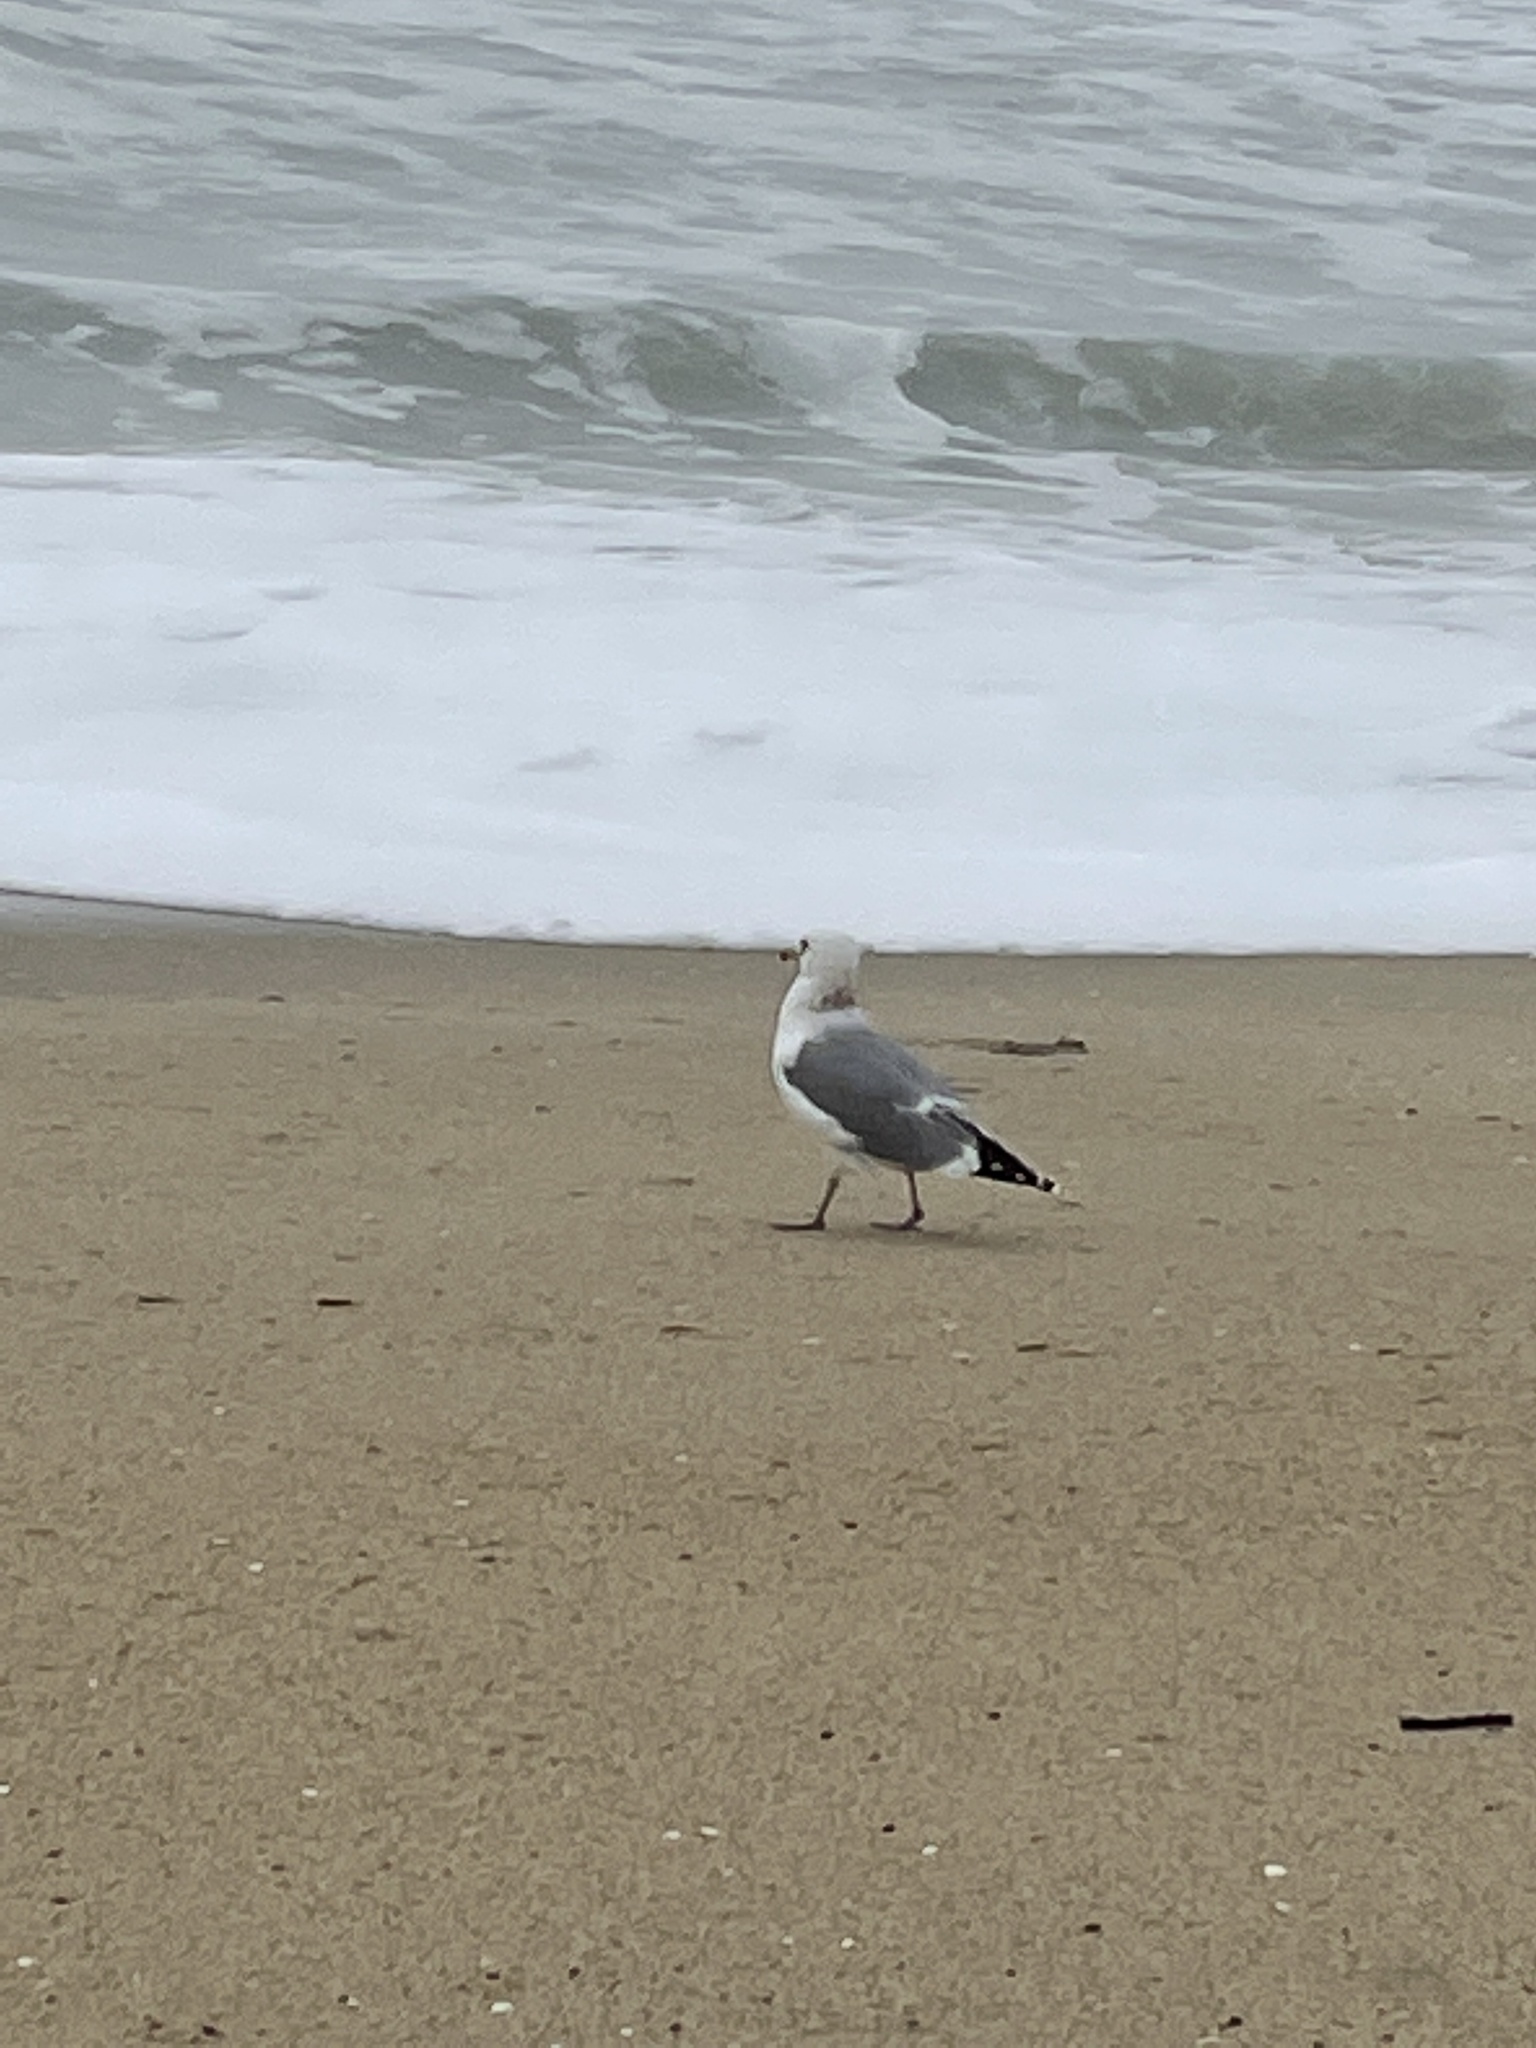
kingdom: Animalia
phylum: Chordata
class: Aves
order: Charadriiformes
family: Laridae
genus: Larus
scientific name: Larus californicus
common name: California gull
